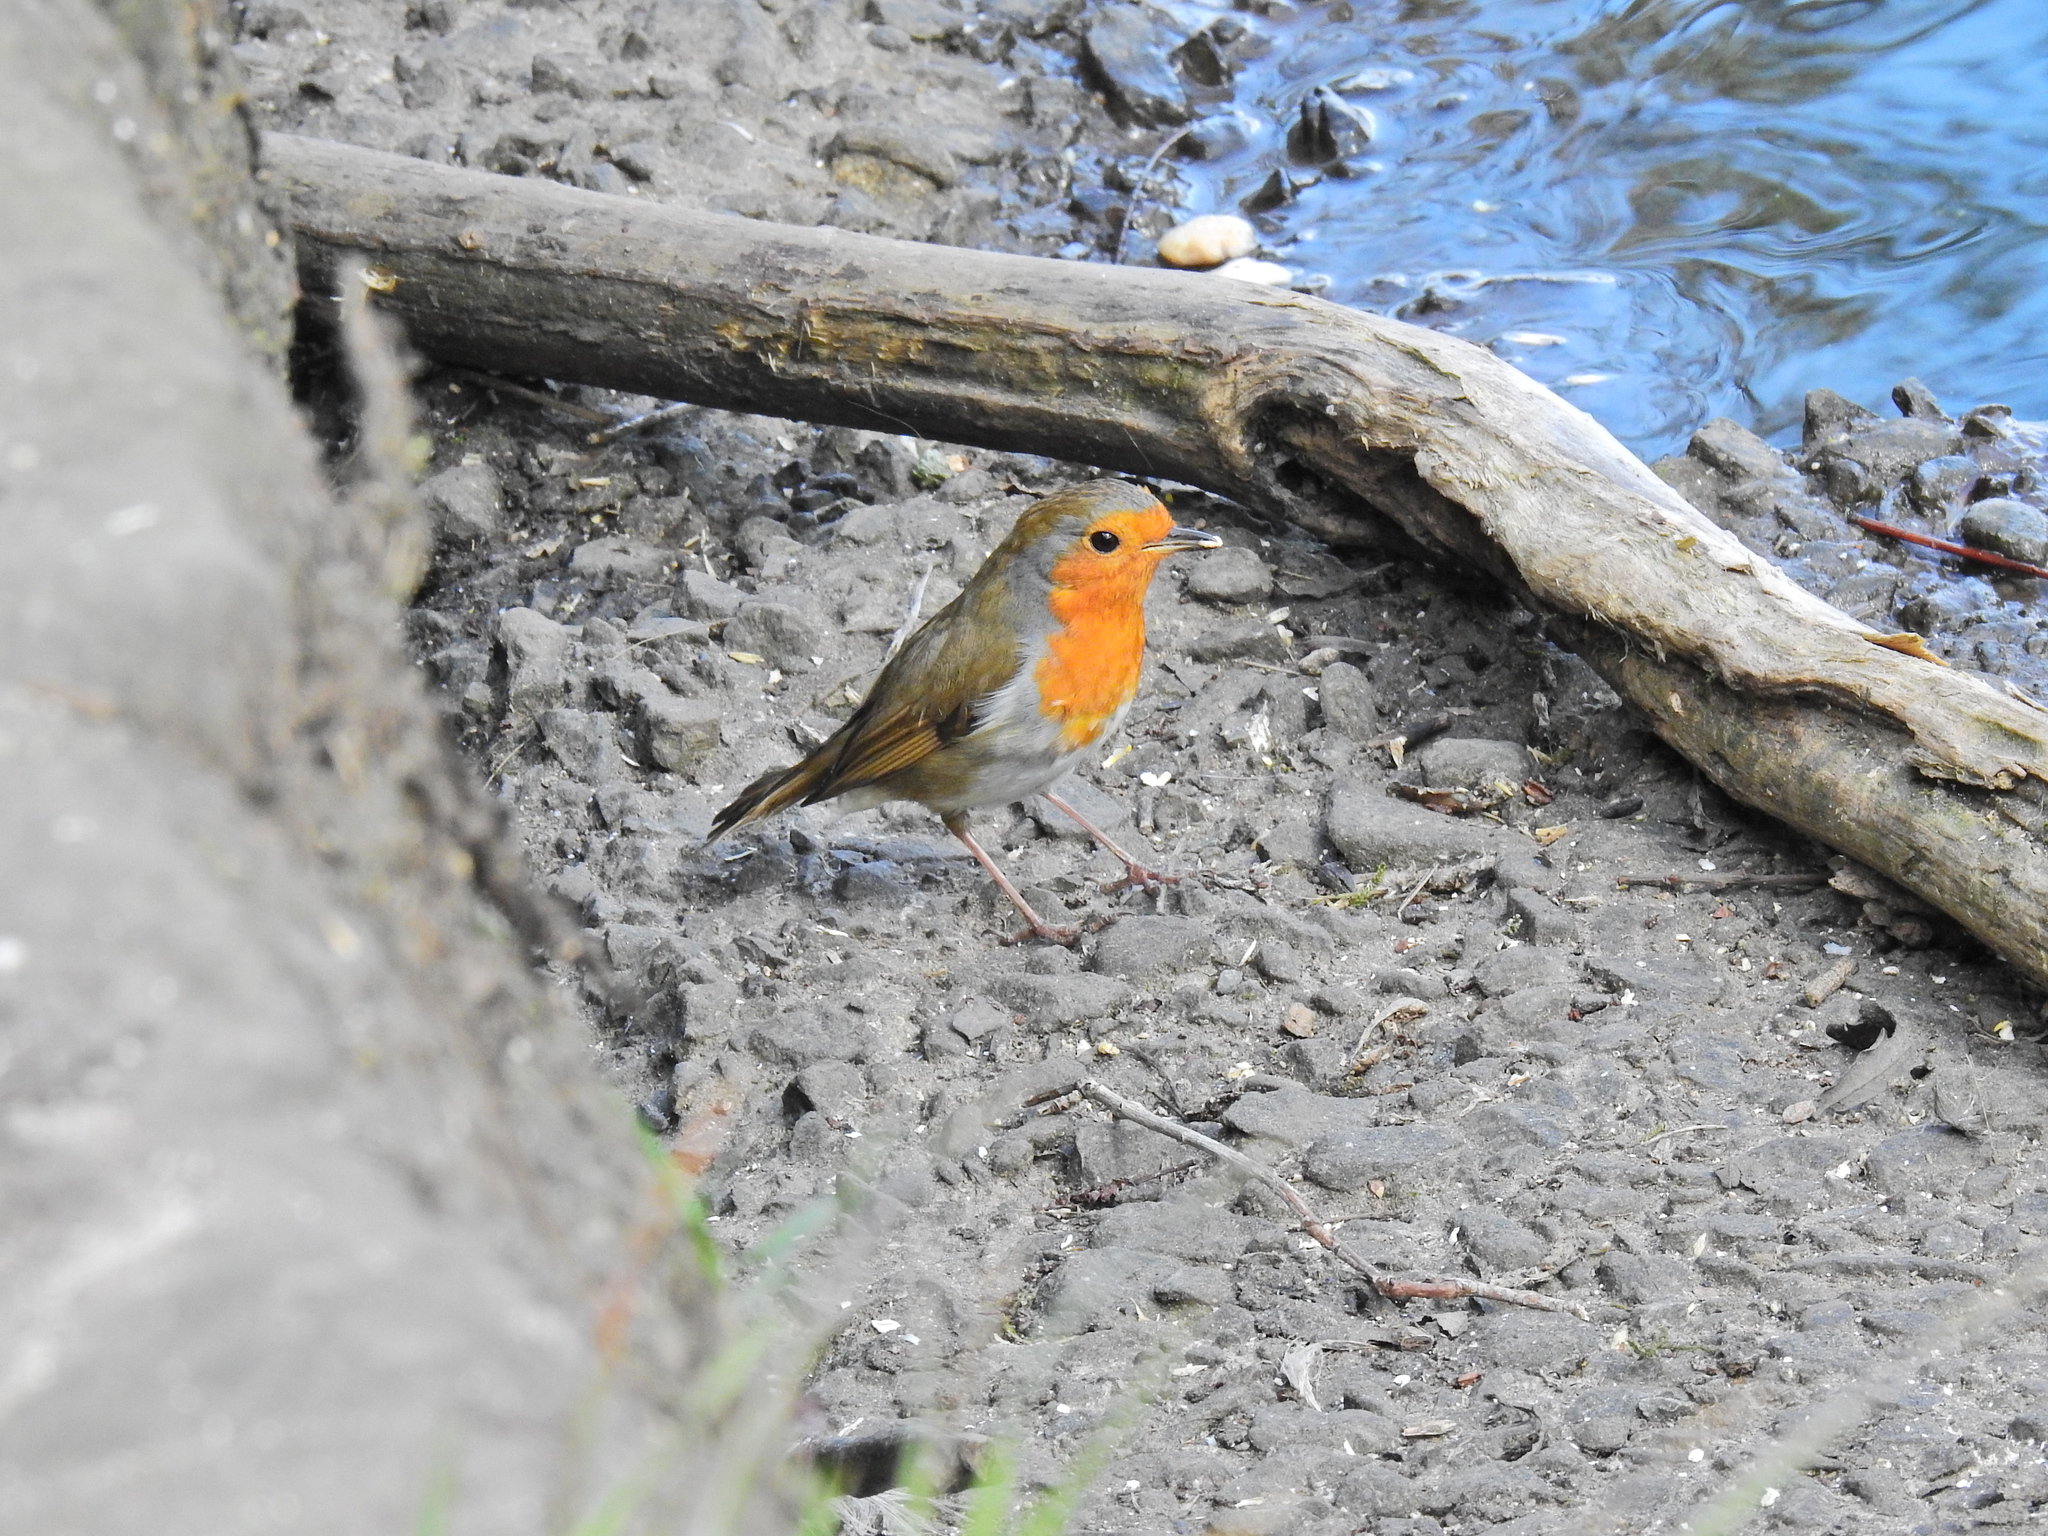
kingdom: Animalia
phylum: Chordata
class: Aves
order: Passeriformes
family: Muscicapidae
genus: Erithacus
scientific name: Erithacus rubecula
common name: European robin
